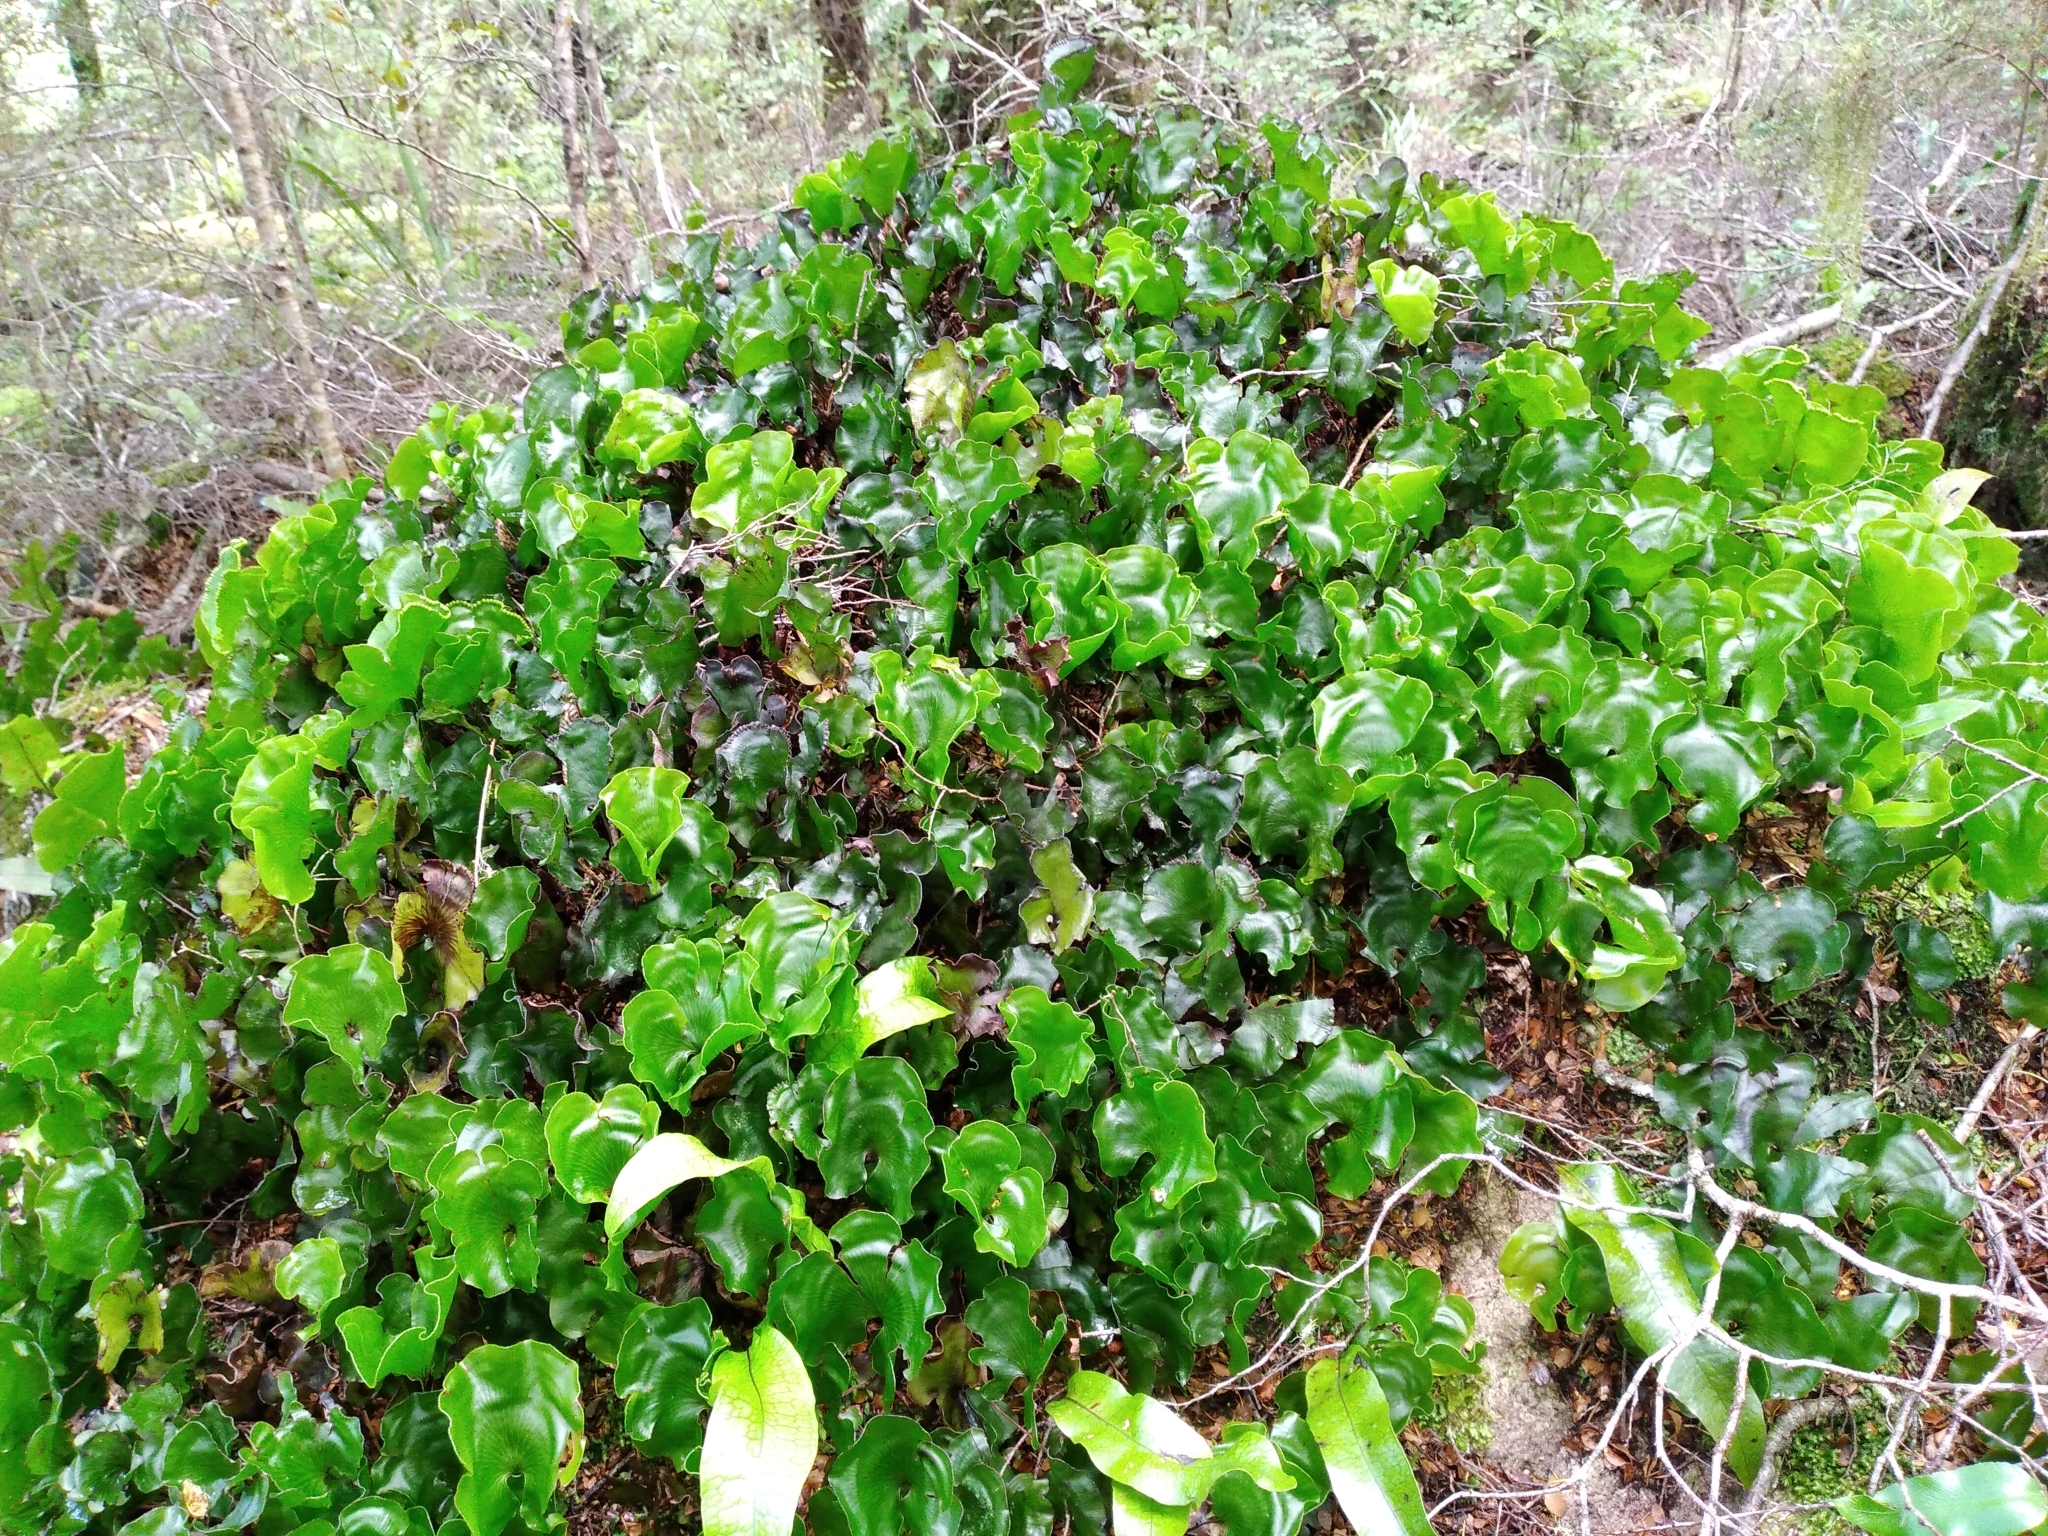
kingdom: Plantae
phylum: Tracheophyta
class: Polypodiopsida
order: Hymenophyllales
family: Hymenophyllaceae
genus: Hymenophyllum
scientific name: Hymenophyllum nephrophyllum
